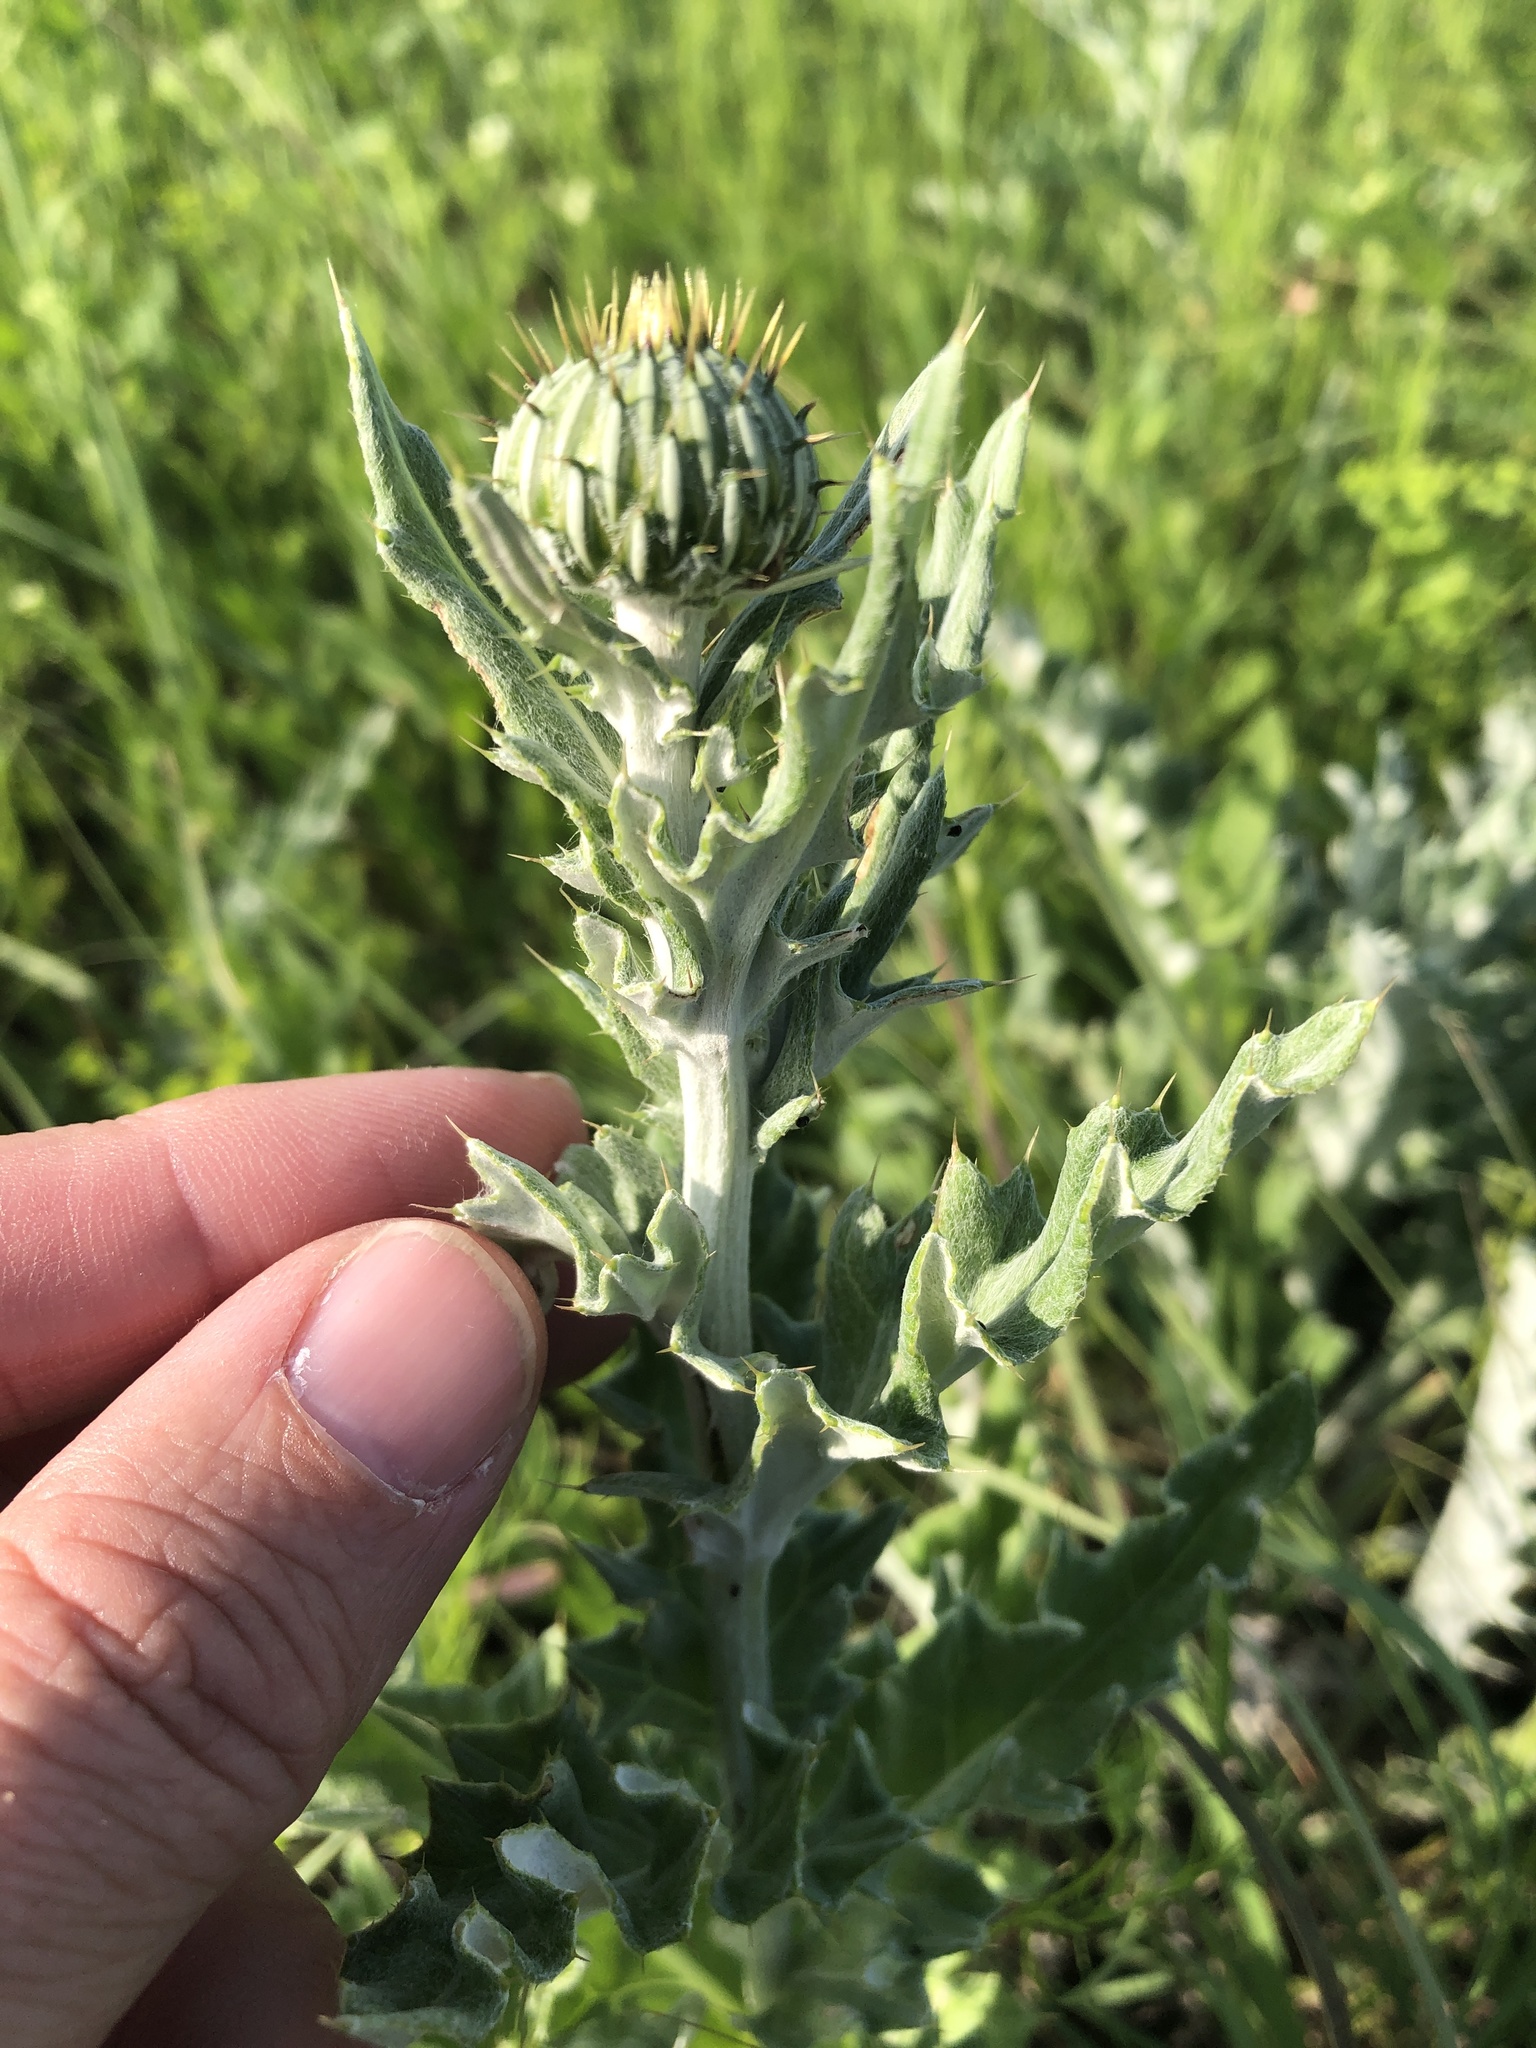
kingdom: Plantae
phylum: Tracheophyta
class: Magnoliopsida
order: Asterales
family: Asteraceae
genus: Cirsium
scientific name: Cirsium undulatum
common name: Pasture thistle
